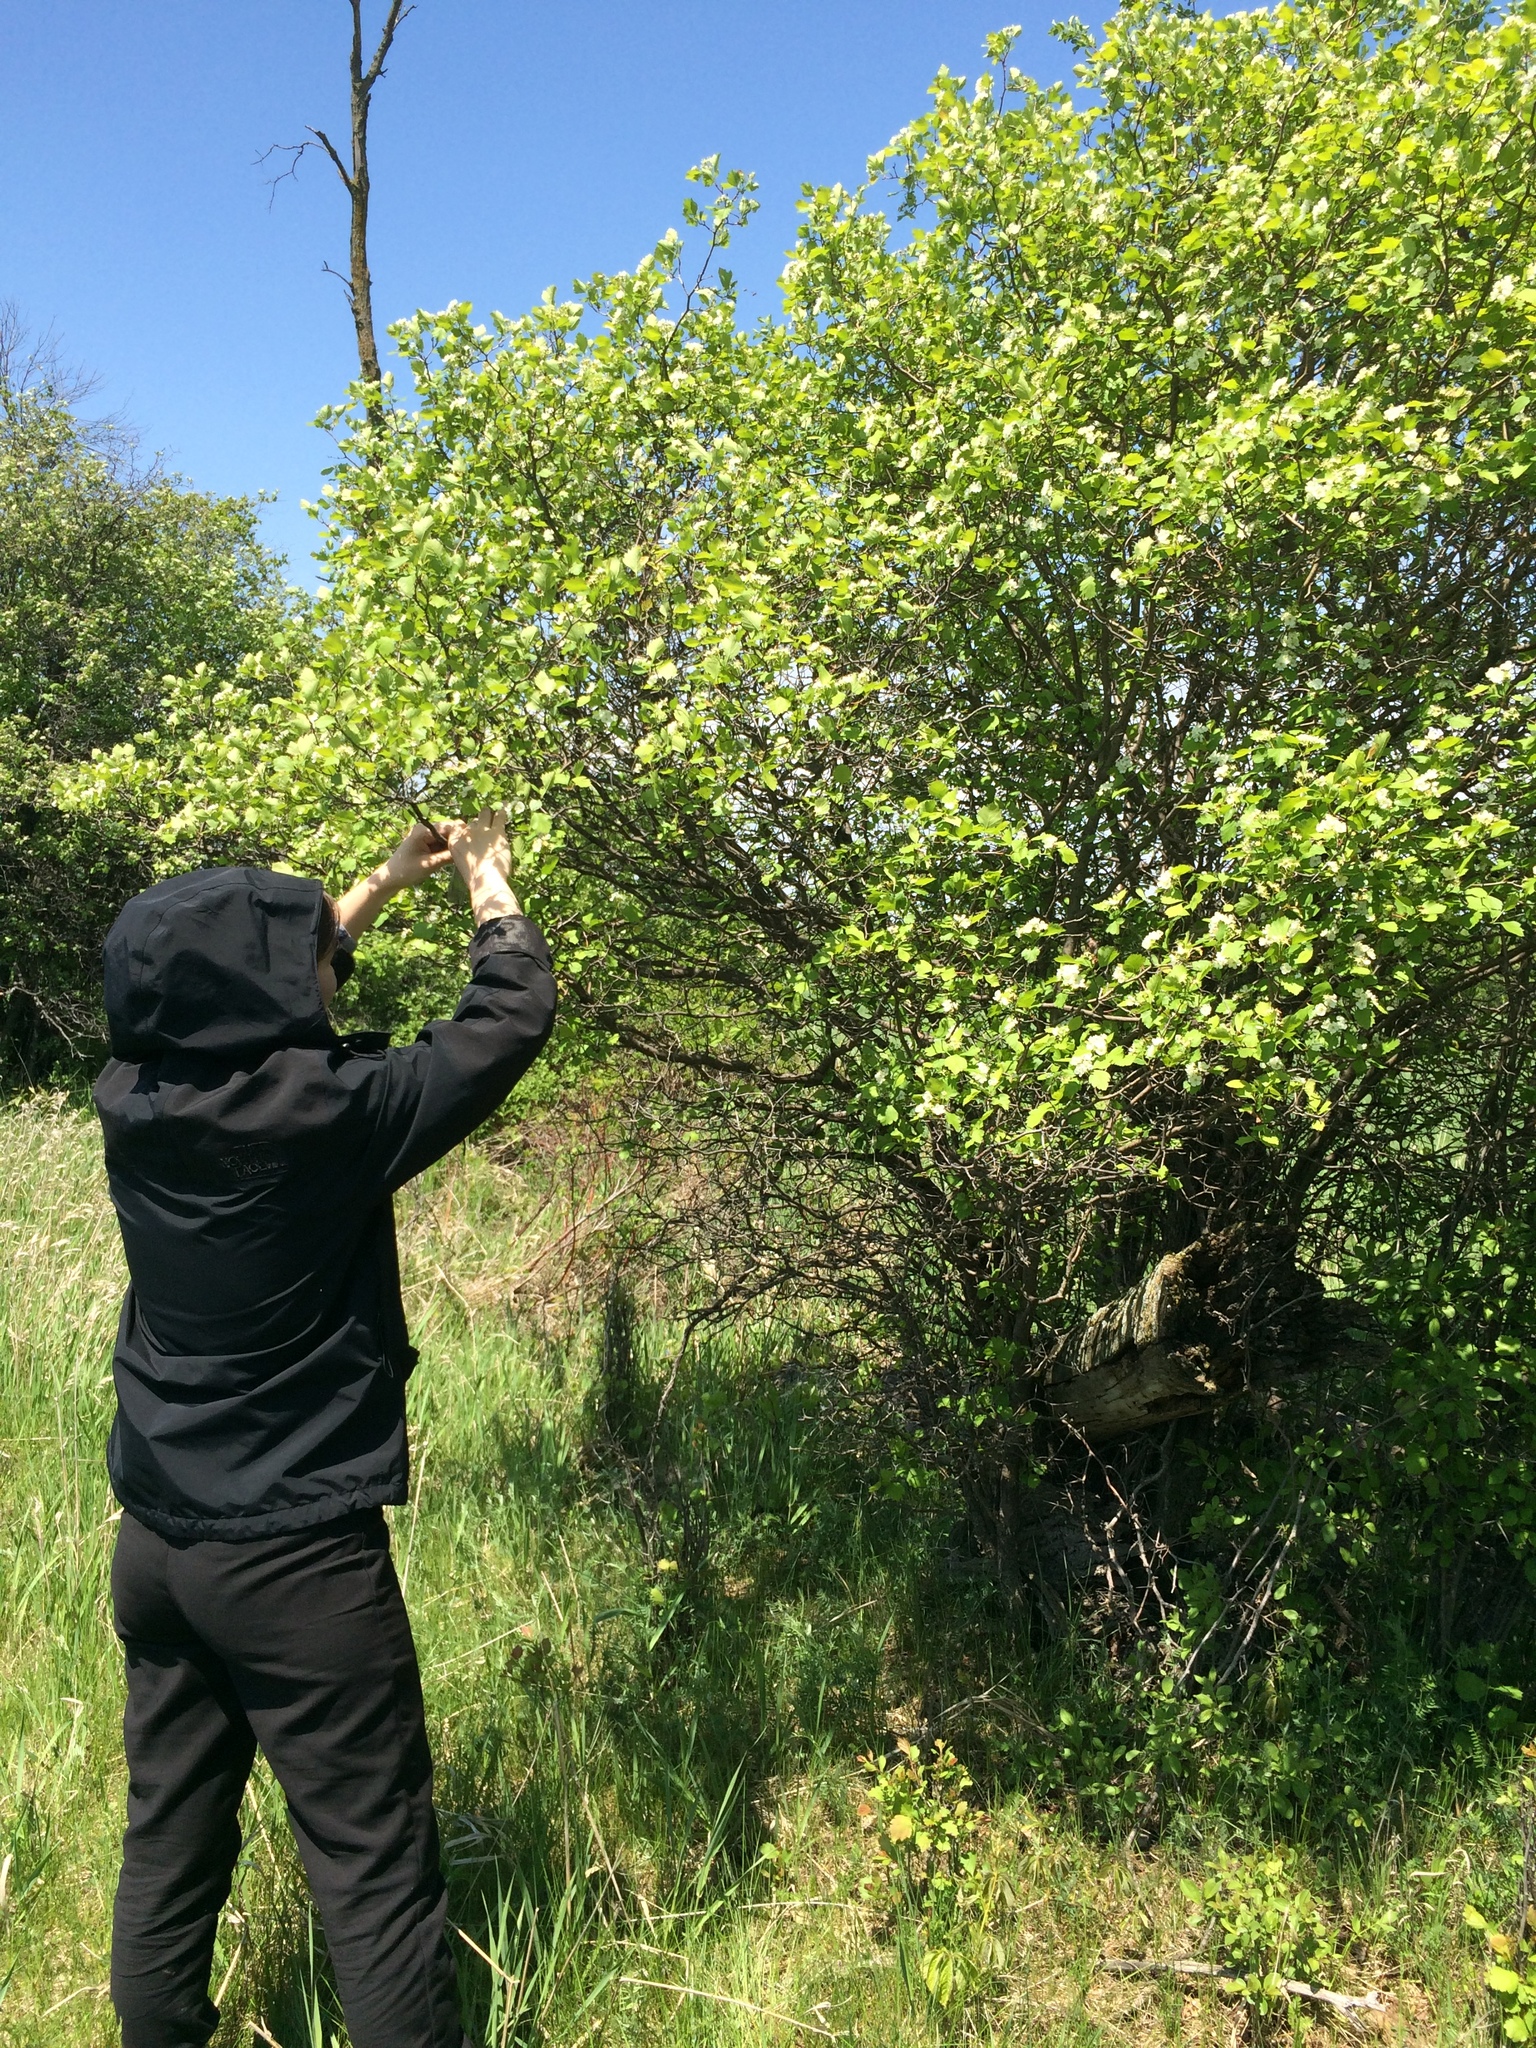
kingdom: Plantae
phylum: Tracheophyta
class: Magnoliopsida
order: Rosales
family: Rosaceae
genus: Crataegus
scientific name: Crataegus chrysocarpa
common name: Fire-berry hawthorn
